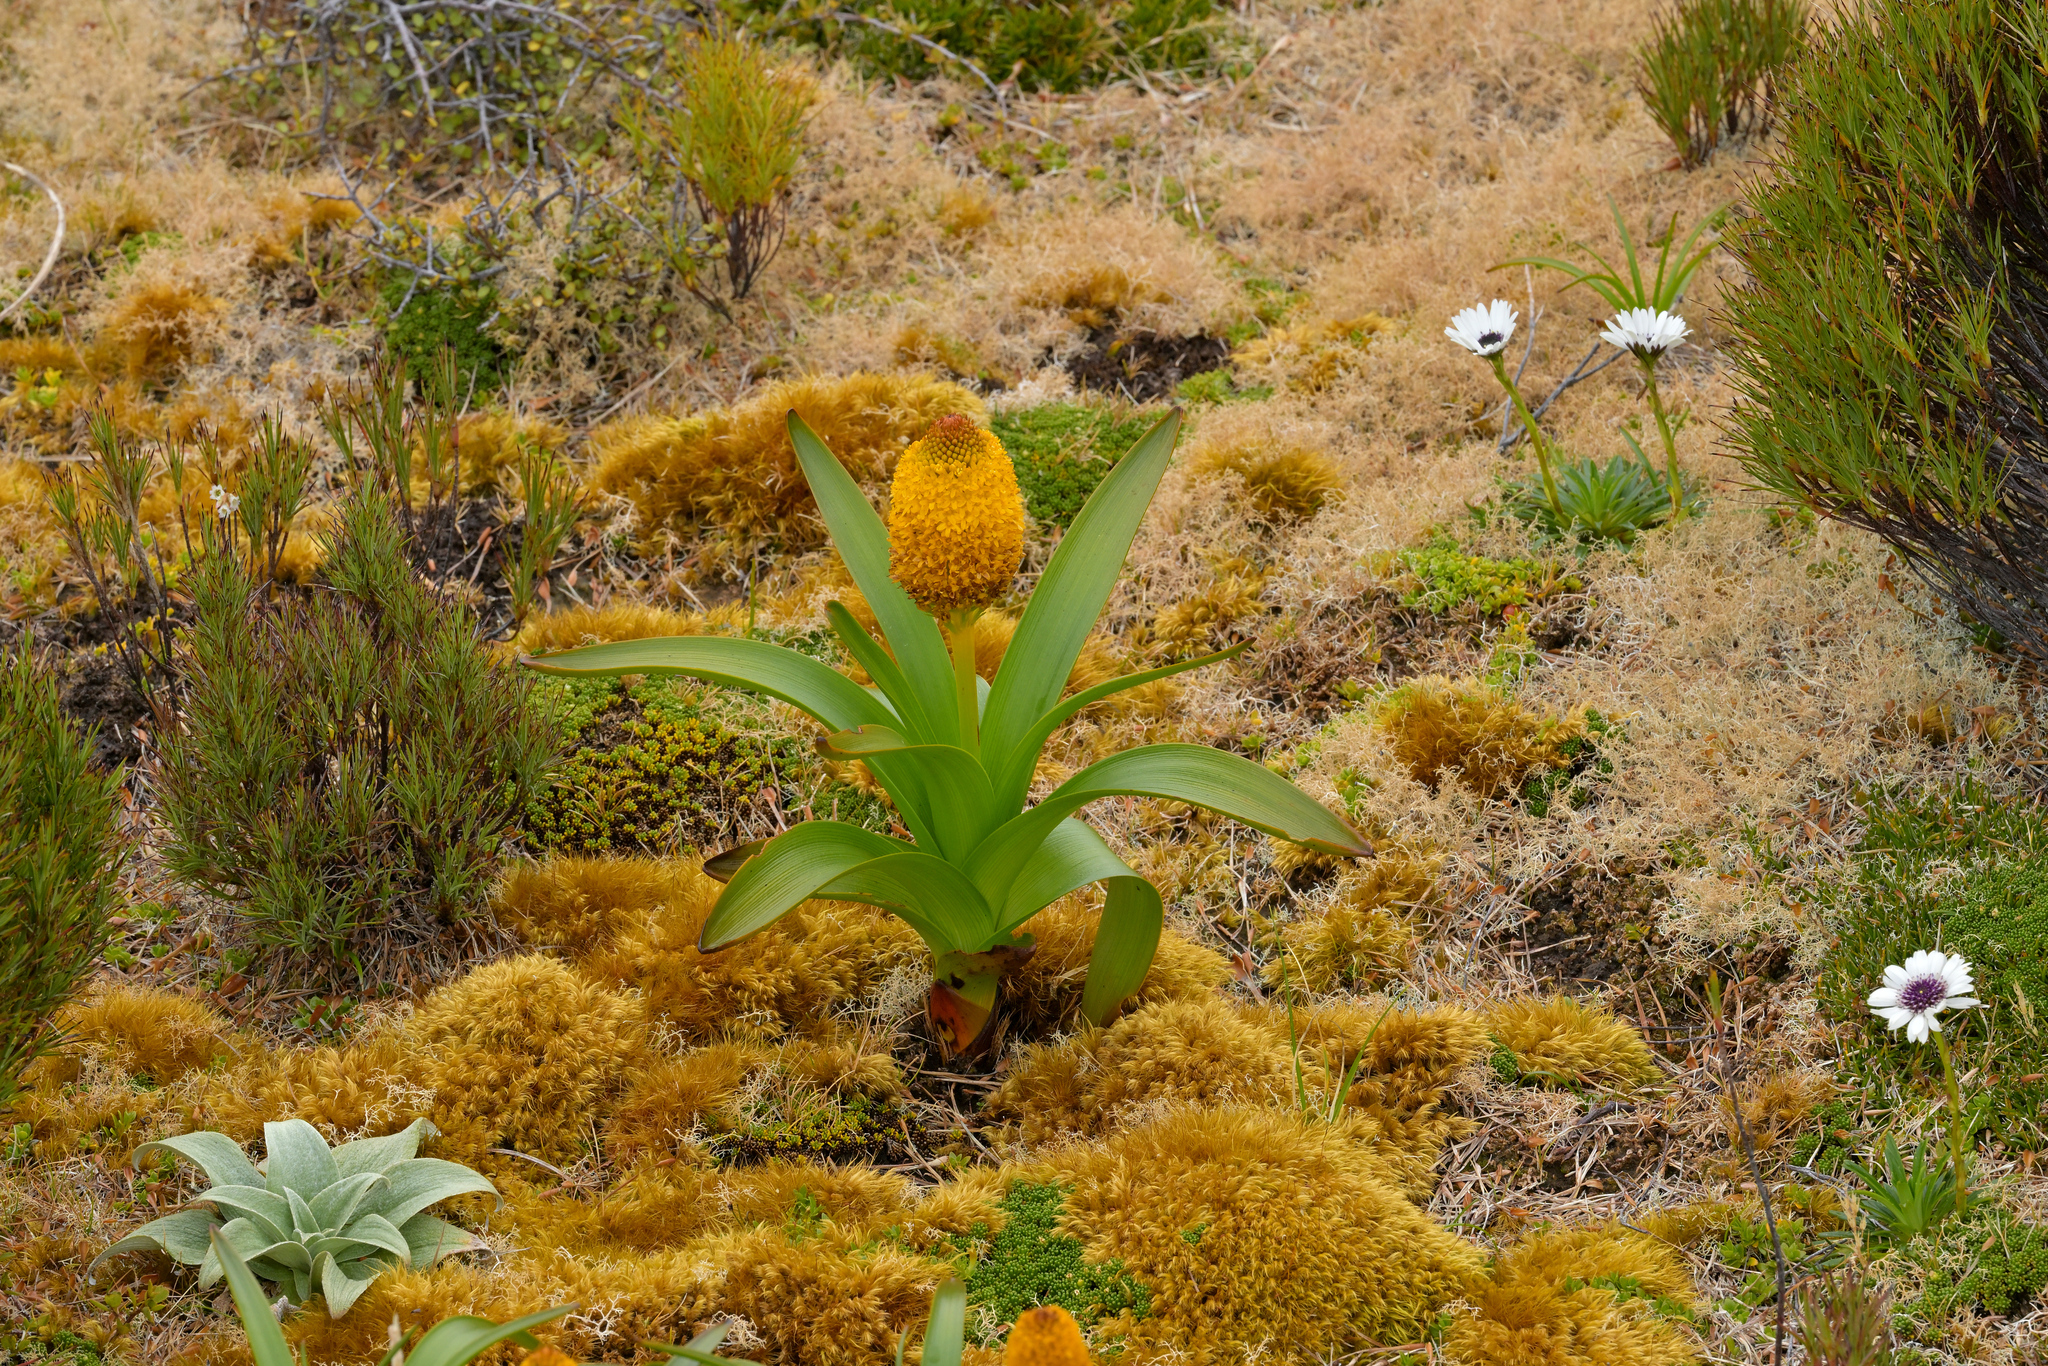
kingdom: Plantae
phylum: Tracheophyta
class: Liliopsida
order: Asparagales
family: Asphodelaceae
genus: Bulbinella
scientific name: Bulbinella rossii
